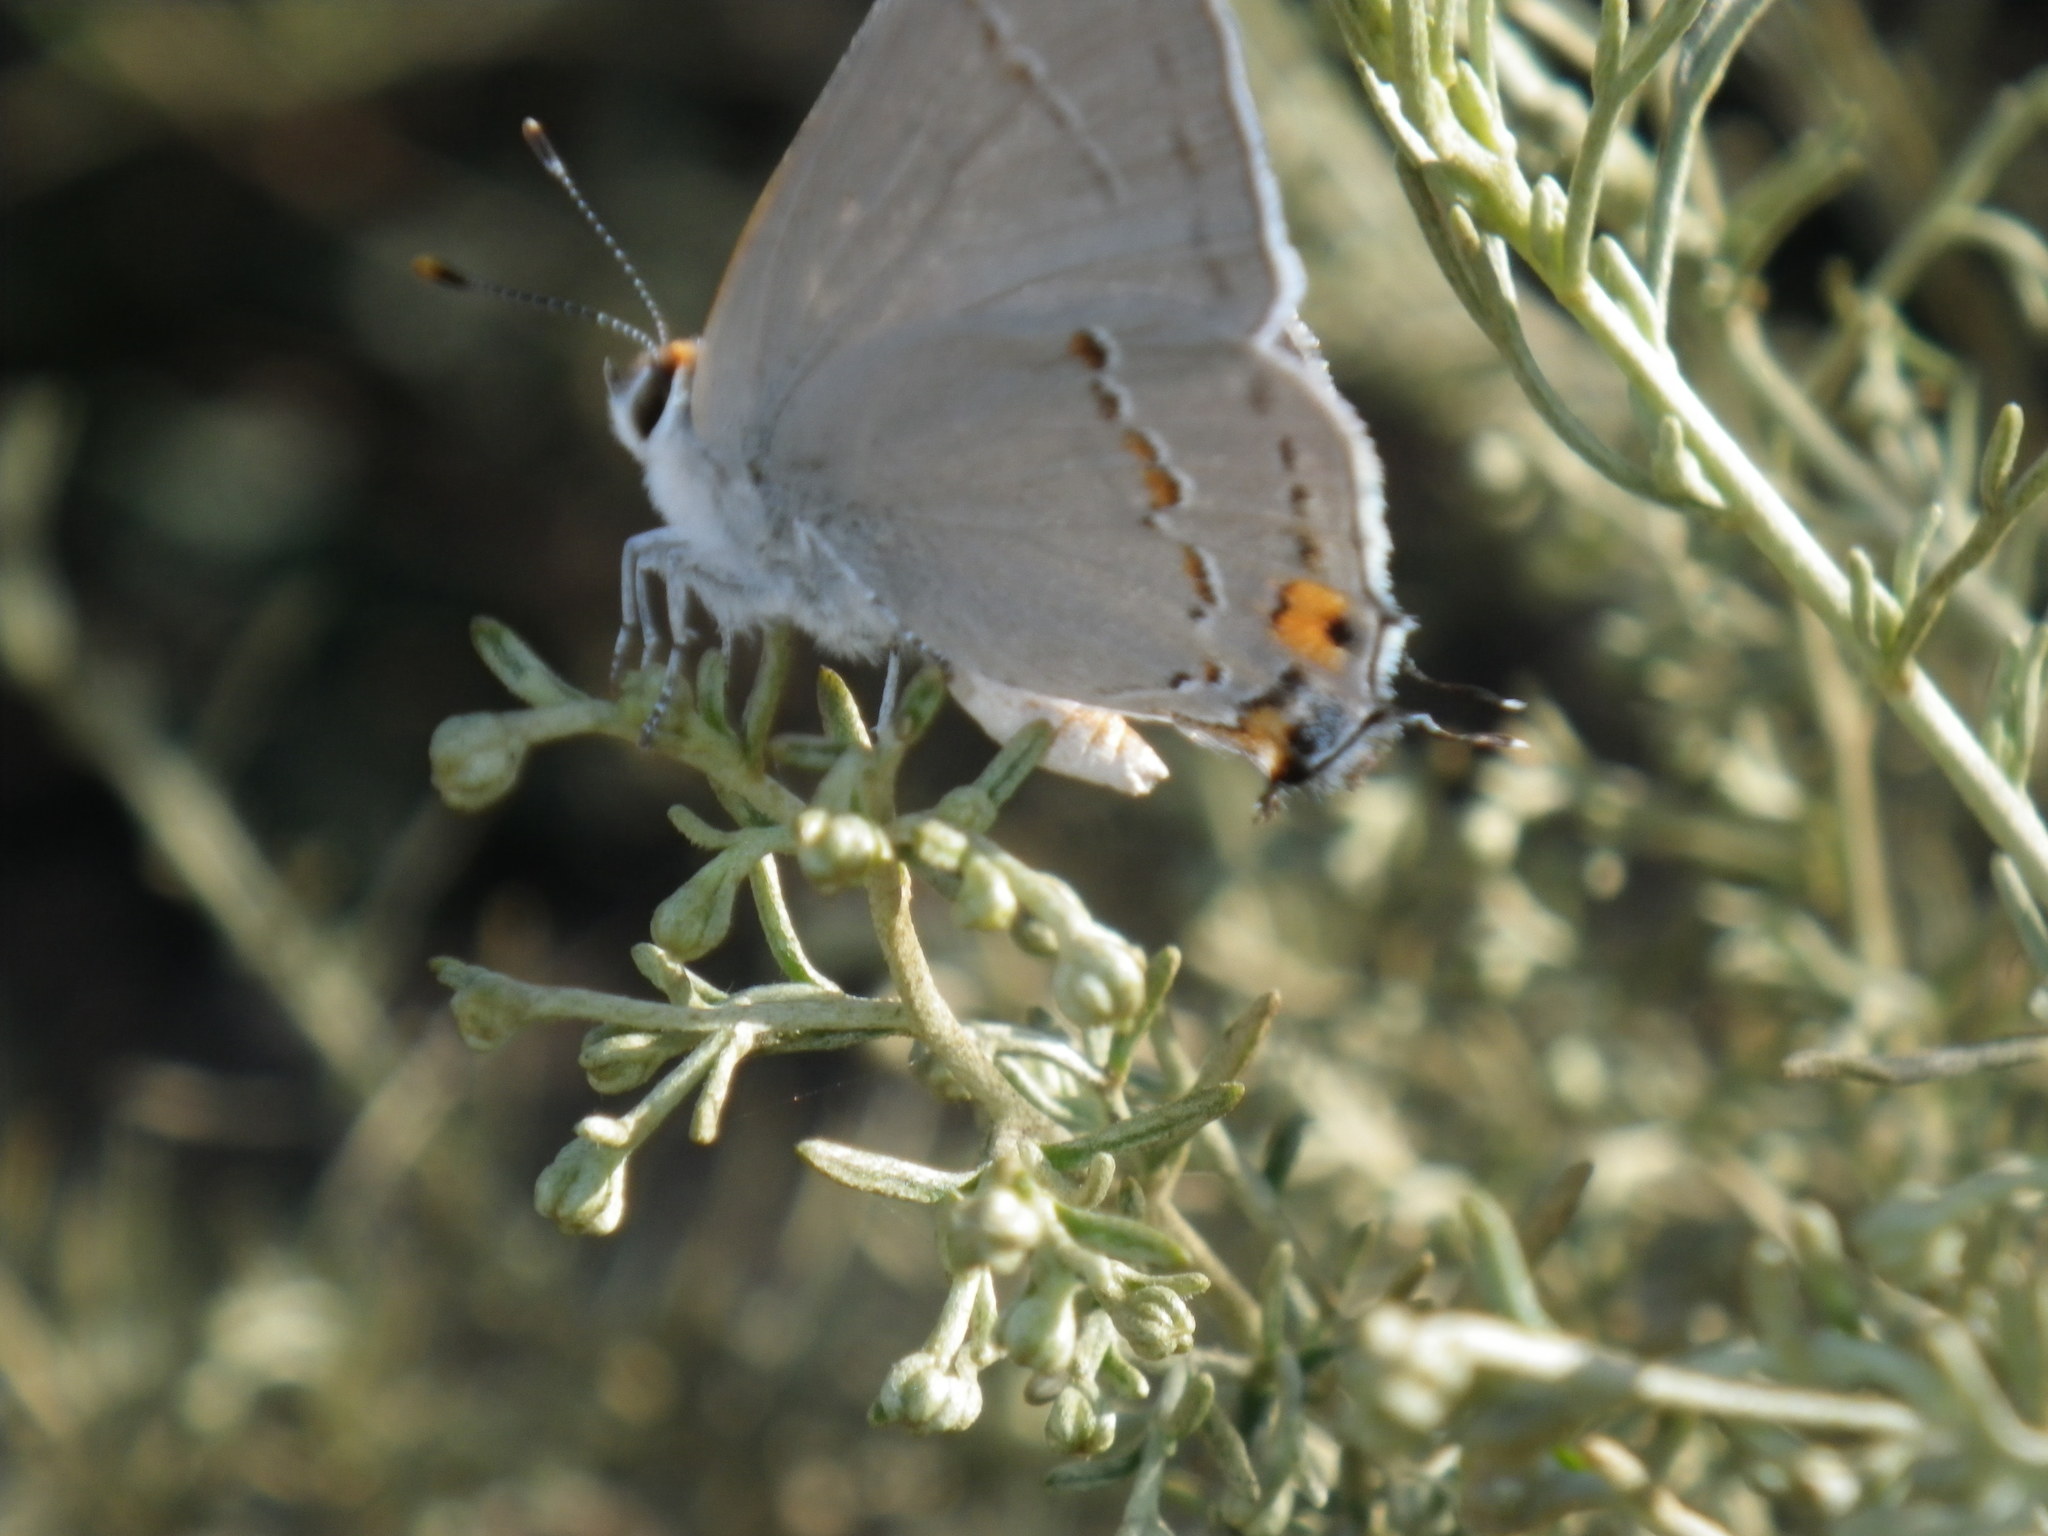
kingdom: Animalia
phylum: Arthropoda
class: Insecta
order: Lepidoptera
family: Lycaenidae
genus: Strymon
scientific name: Strymon melinus
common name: Gray hairstreak
